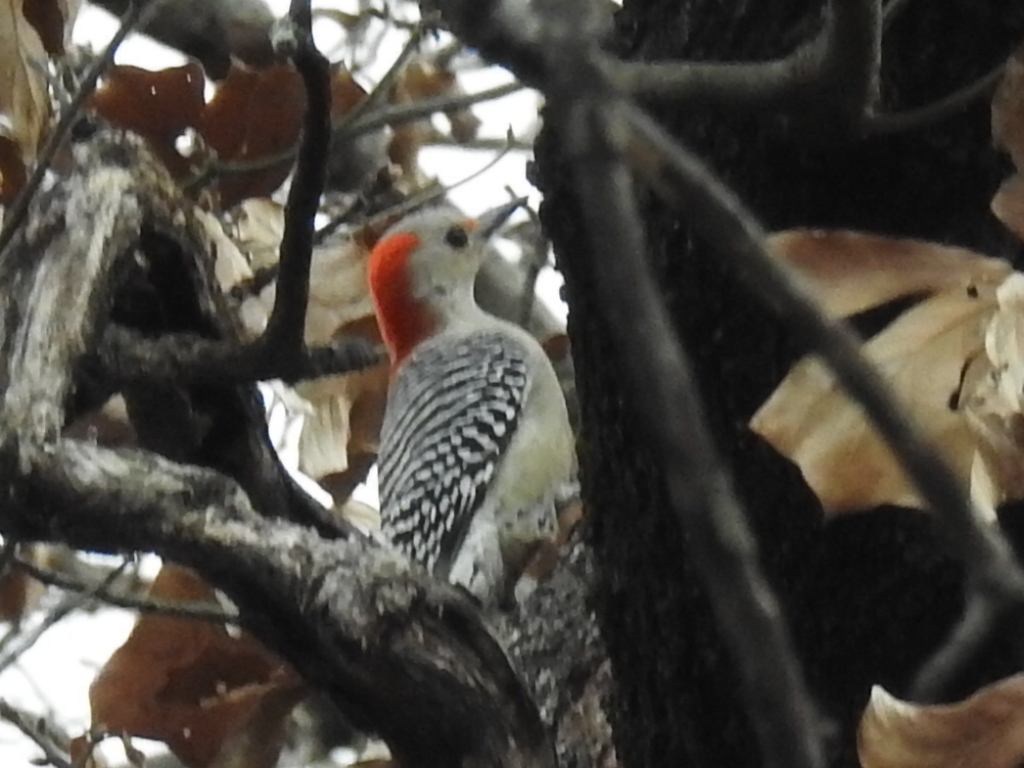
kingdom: Animalia
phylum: Chordata
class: Aves
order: Piciformes
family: Picidae
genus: Melanerpes
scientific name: Melanerpes carolinus
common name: Red-bellied woodpecker
